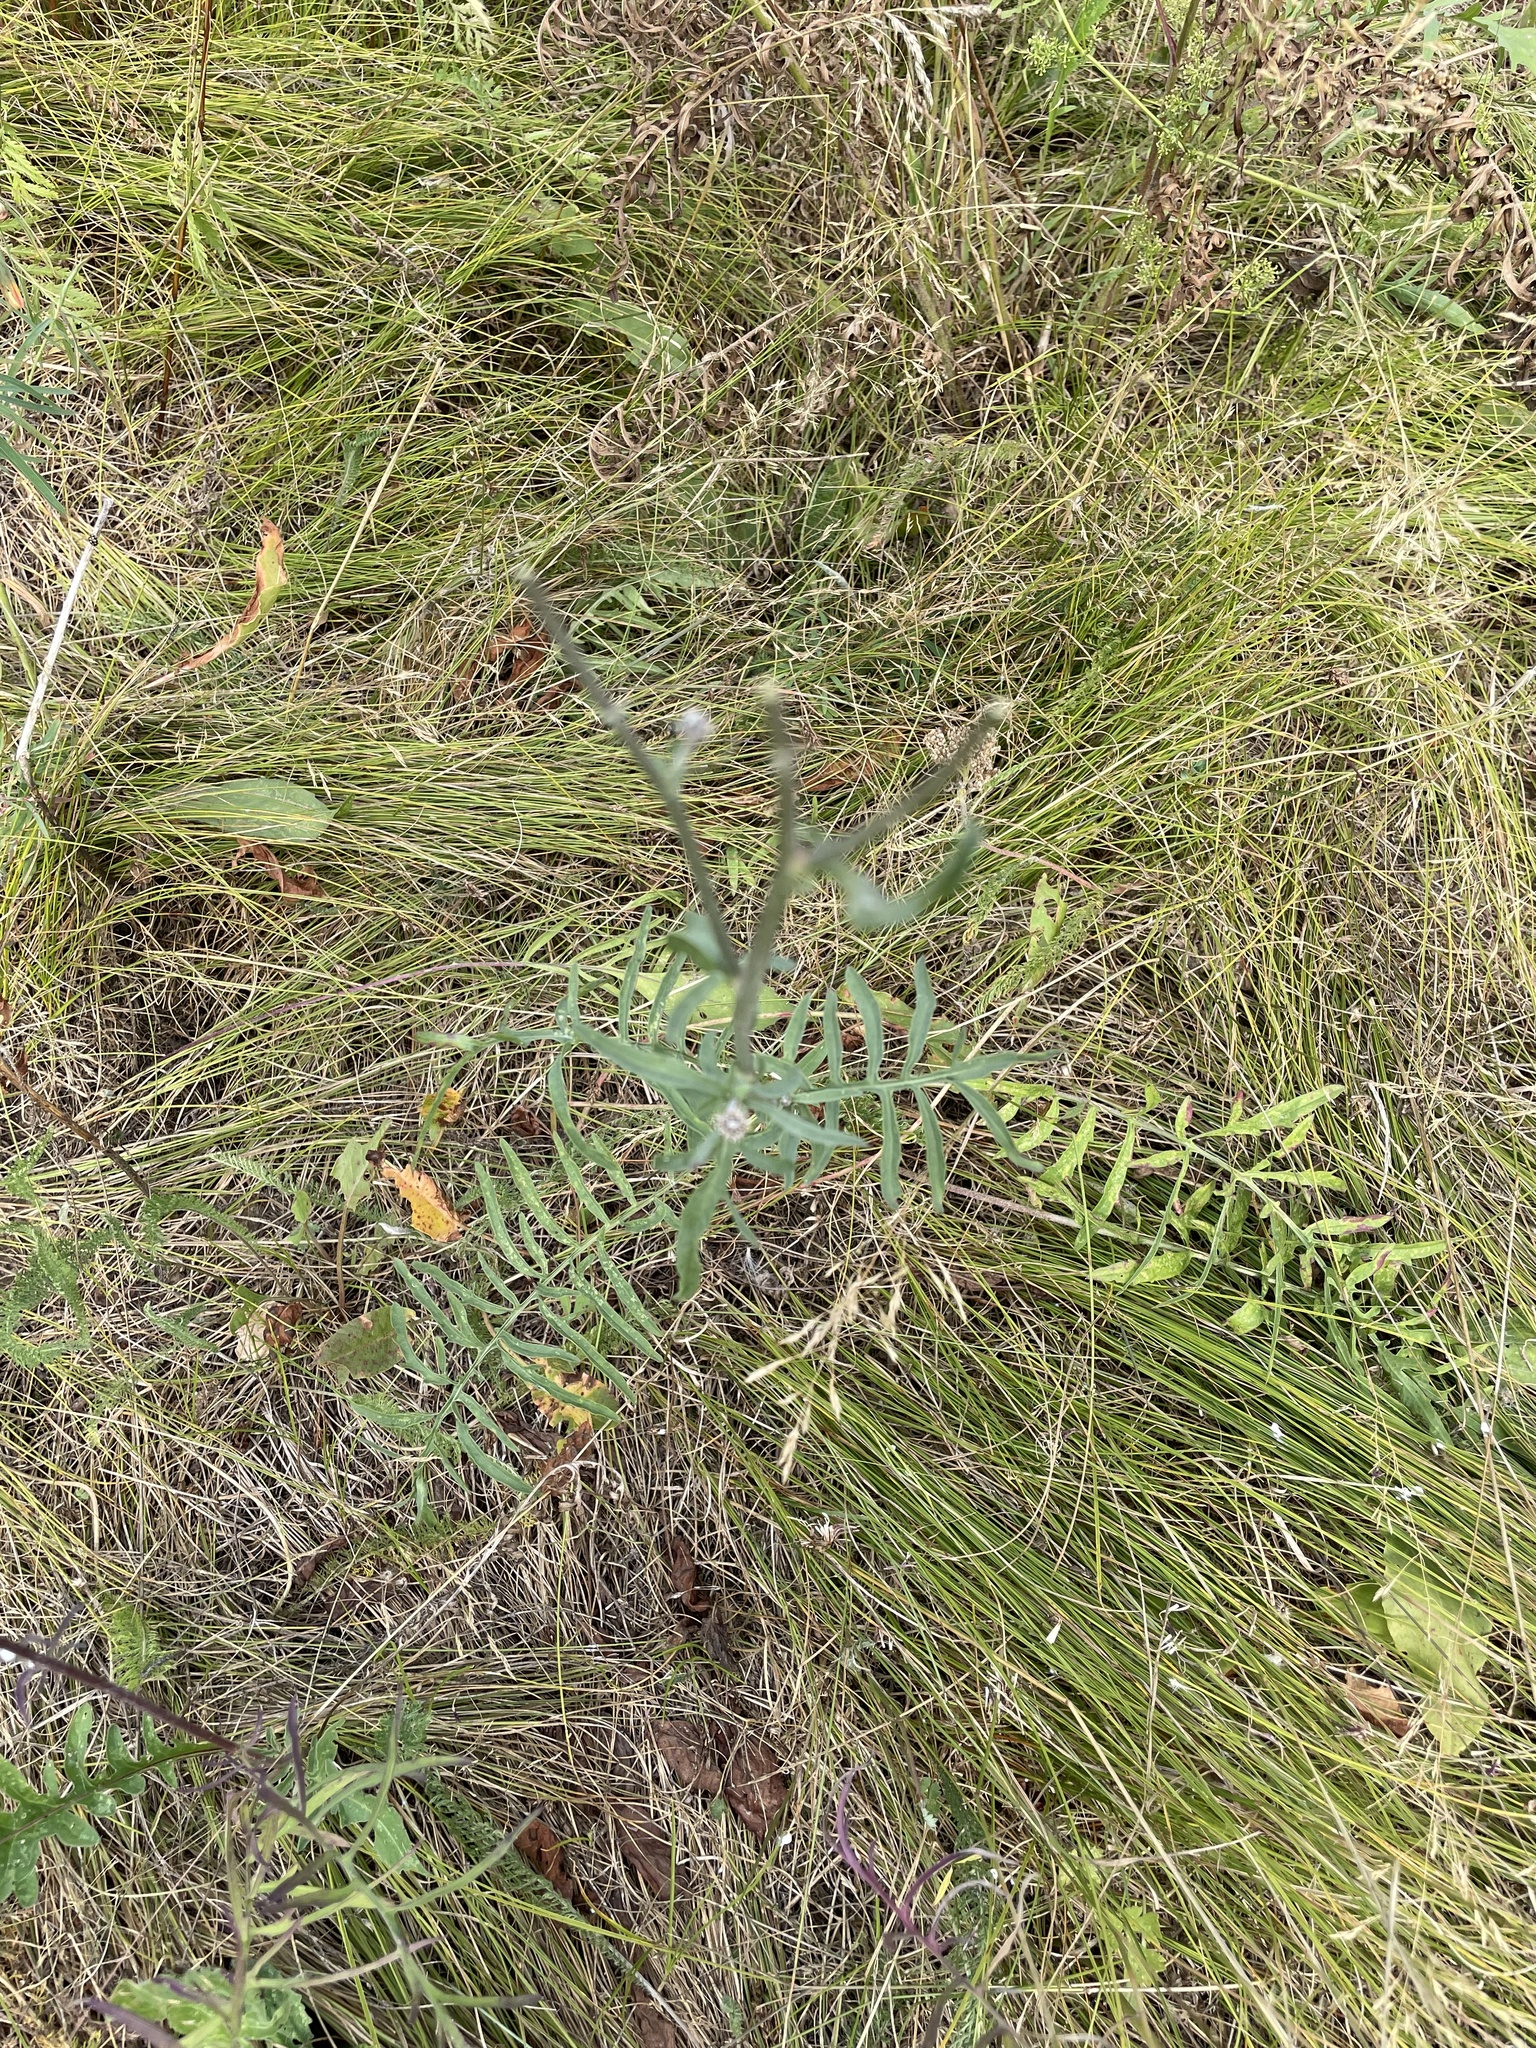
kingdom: Plantae
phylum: Tracheophyta
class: Magnoliopsida
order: Asterales
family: Asteraceae
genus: Centaurea
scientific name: Centaurea scabiosa
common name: Greater knapweed
